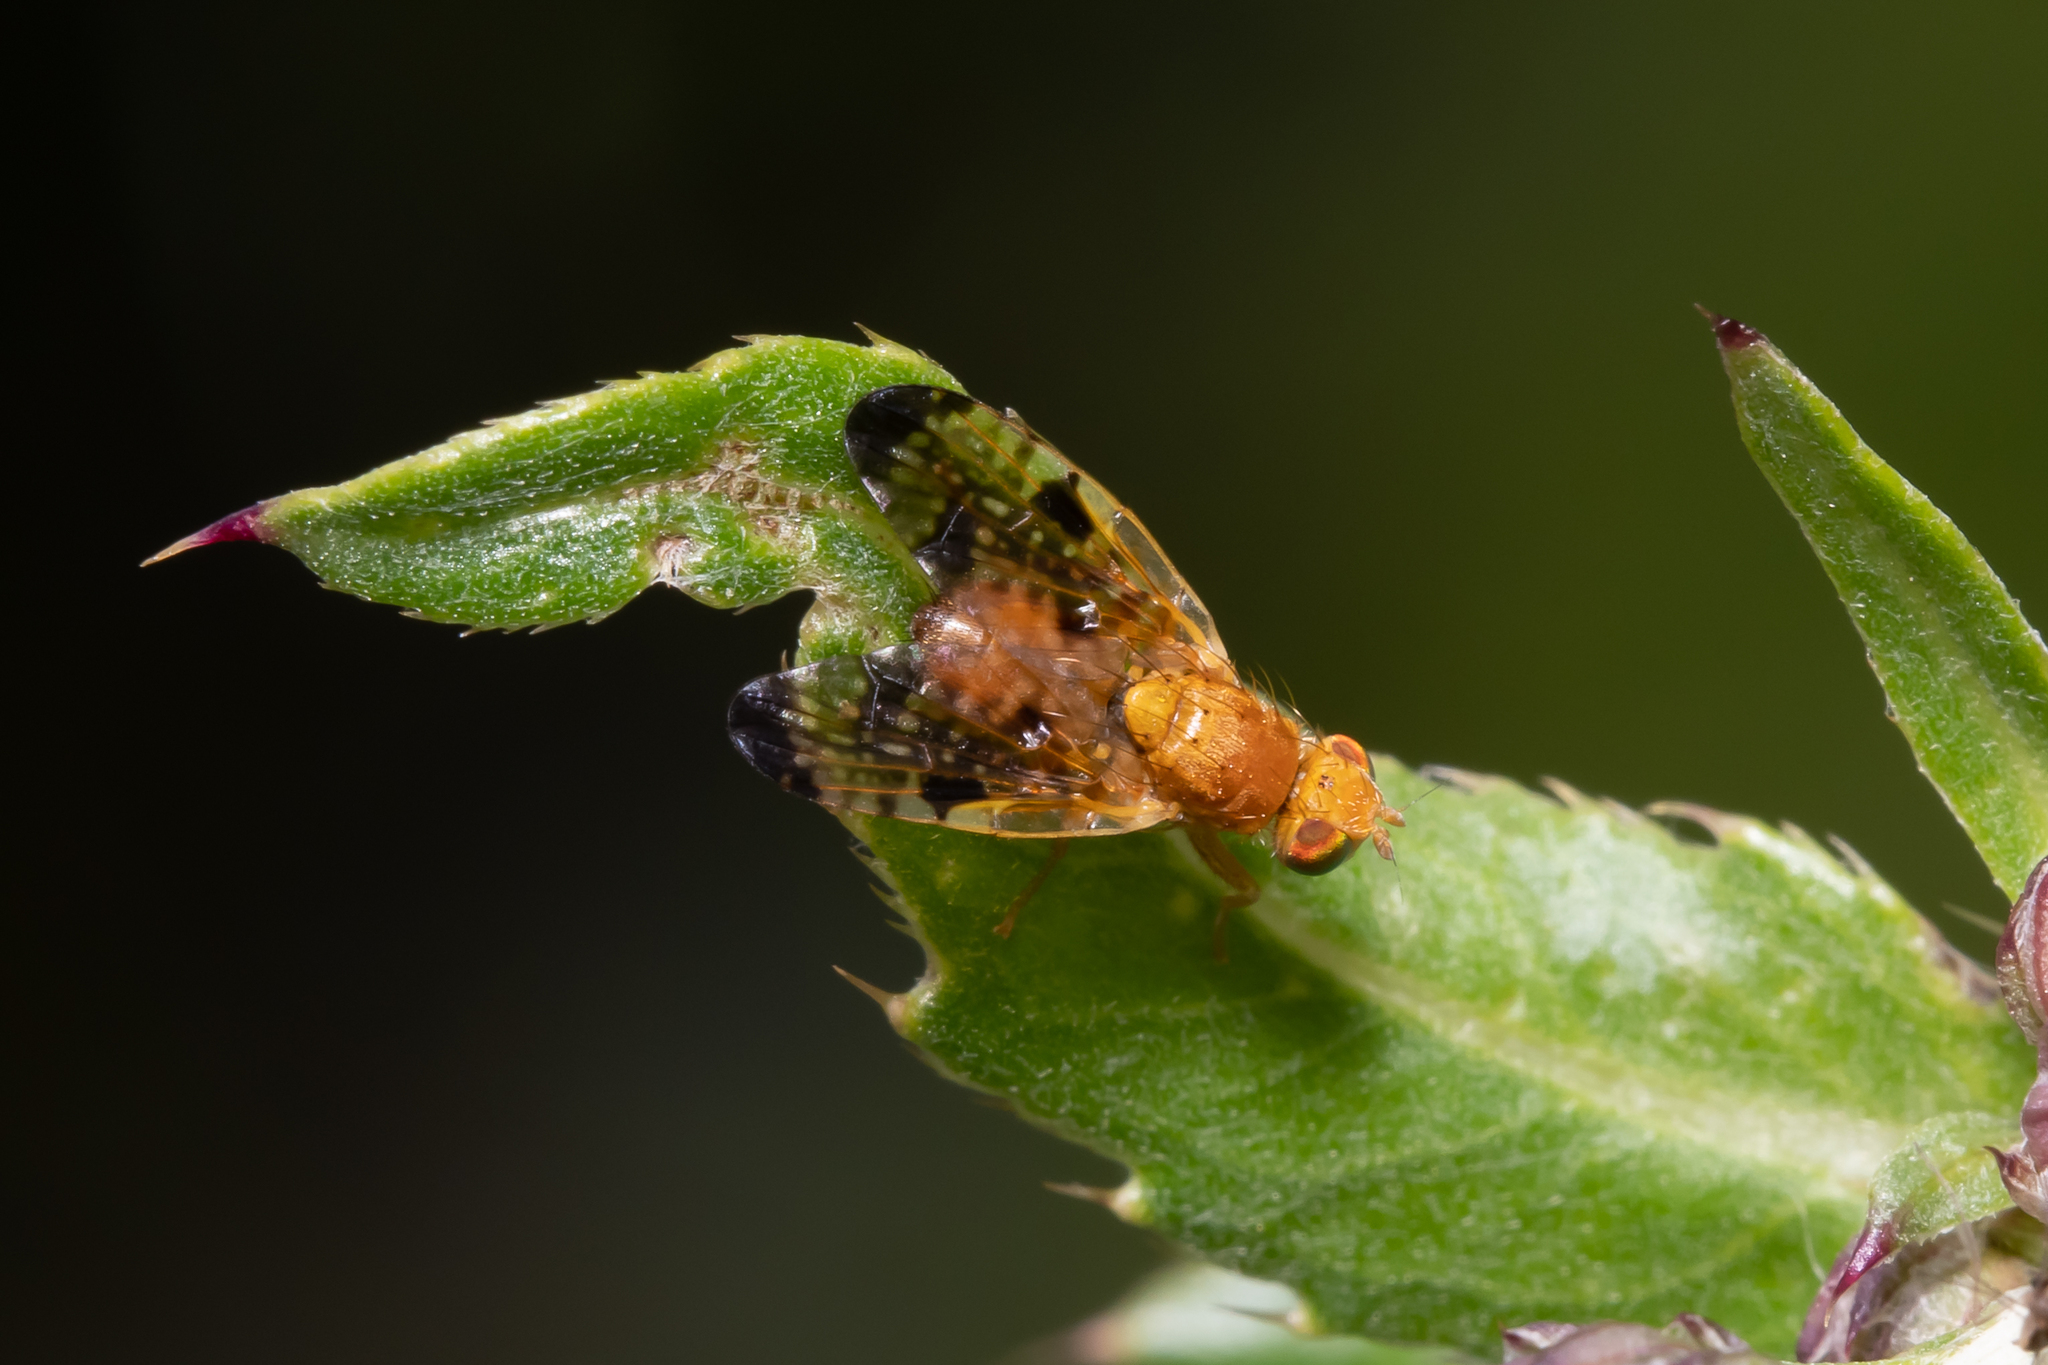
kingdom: Animalia
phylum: Arthropoda
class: Insecta
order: Diptera
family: Tephritidae
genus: Xyphosia
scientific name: Xyphosia miliaria
